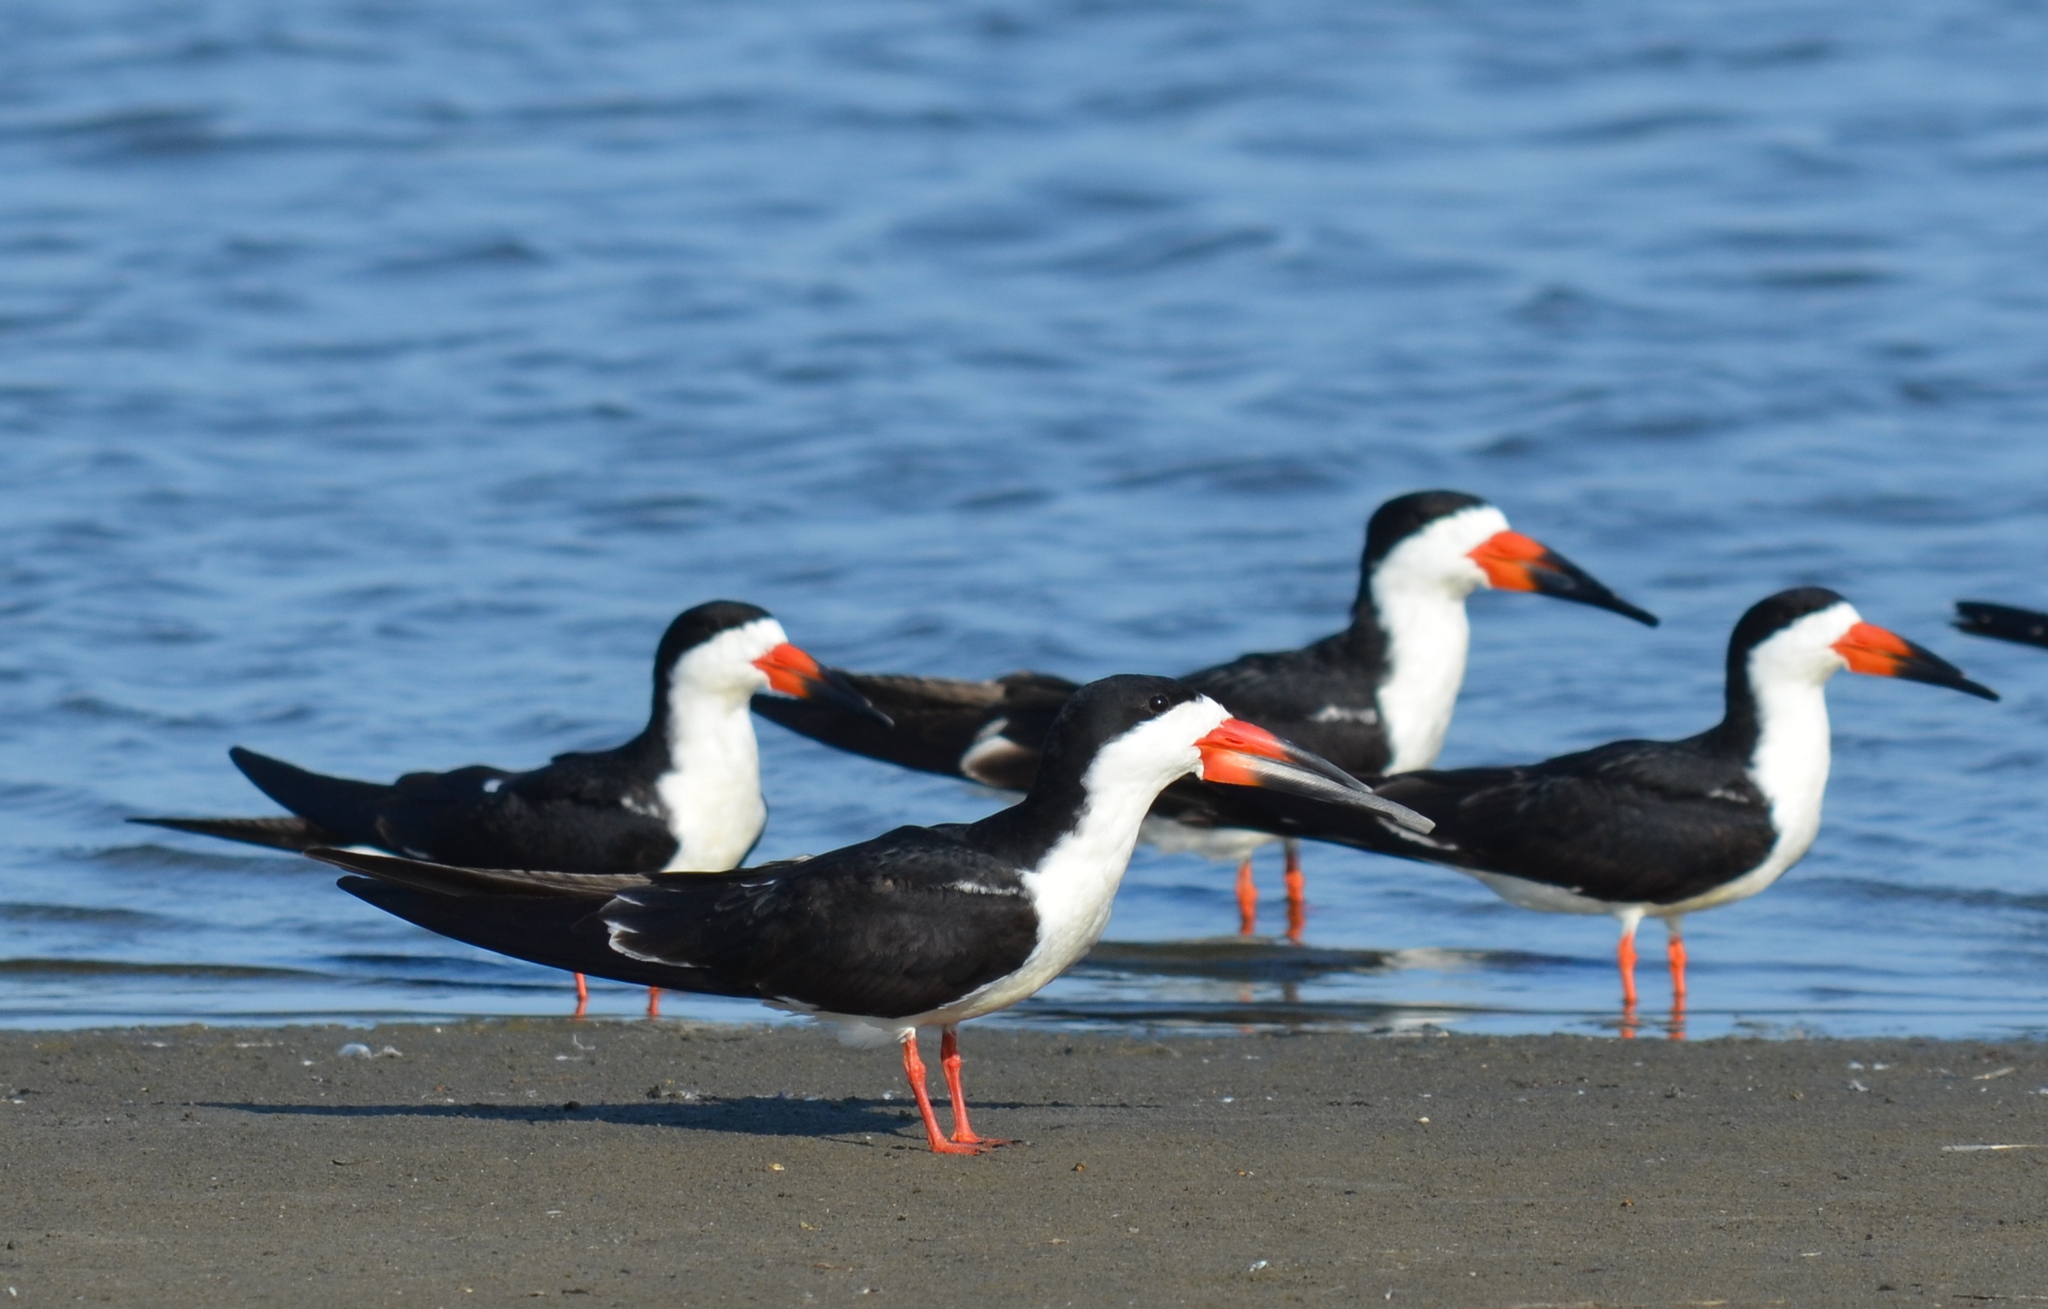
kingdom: Animalia
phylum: Chordata
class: Aves
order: Charadriiformes
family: Laridae
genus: Rynchops
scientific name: Rynchops niger
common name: Black skimmer
